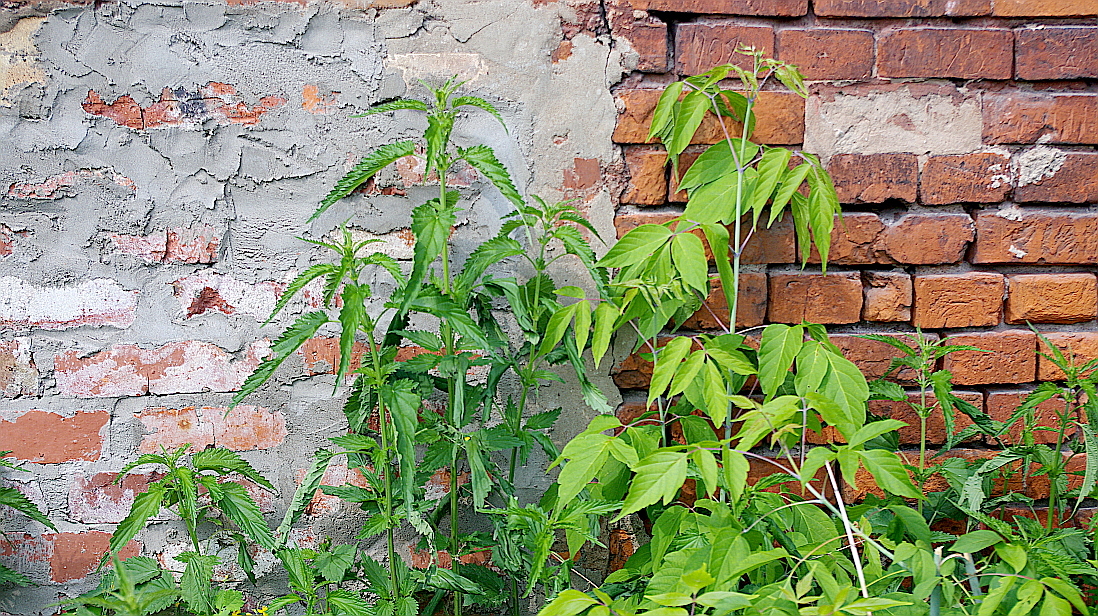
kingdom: Plantae
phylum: Tracheophyta
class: Magnoliopsida
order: Rosales
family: Urticaceae
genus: Urtica
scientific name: Urtica dioica
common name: Common nettle
